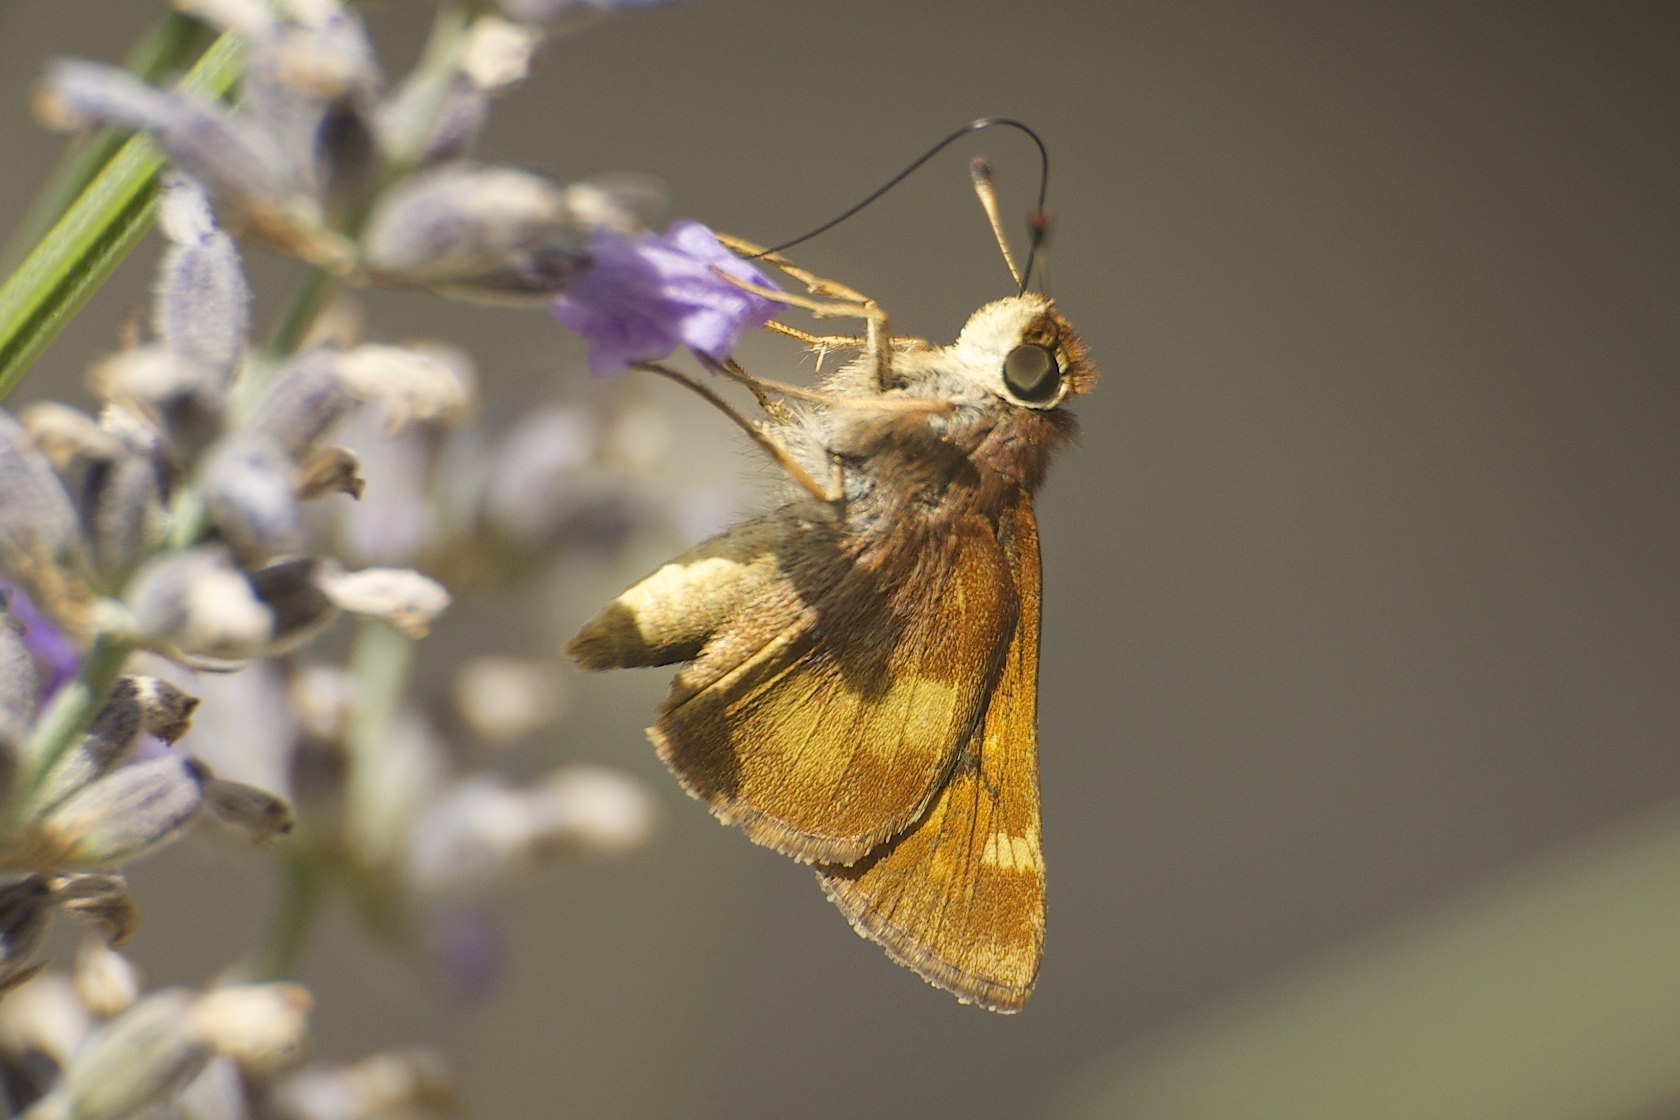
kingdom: Animalia
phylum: Arthropoda
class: Insecta
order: Lepidoptera
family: Hesperiidae
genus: Lon
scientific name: Lon melane
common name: Umber skipper
